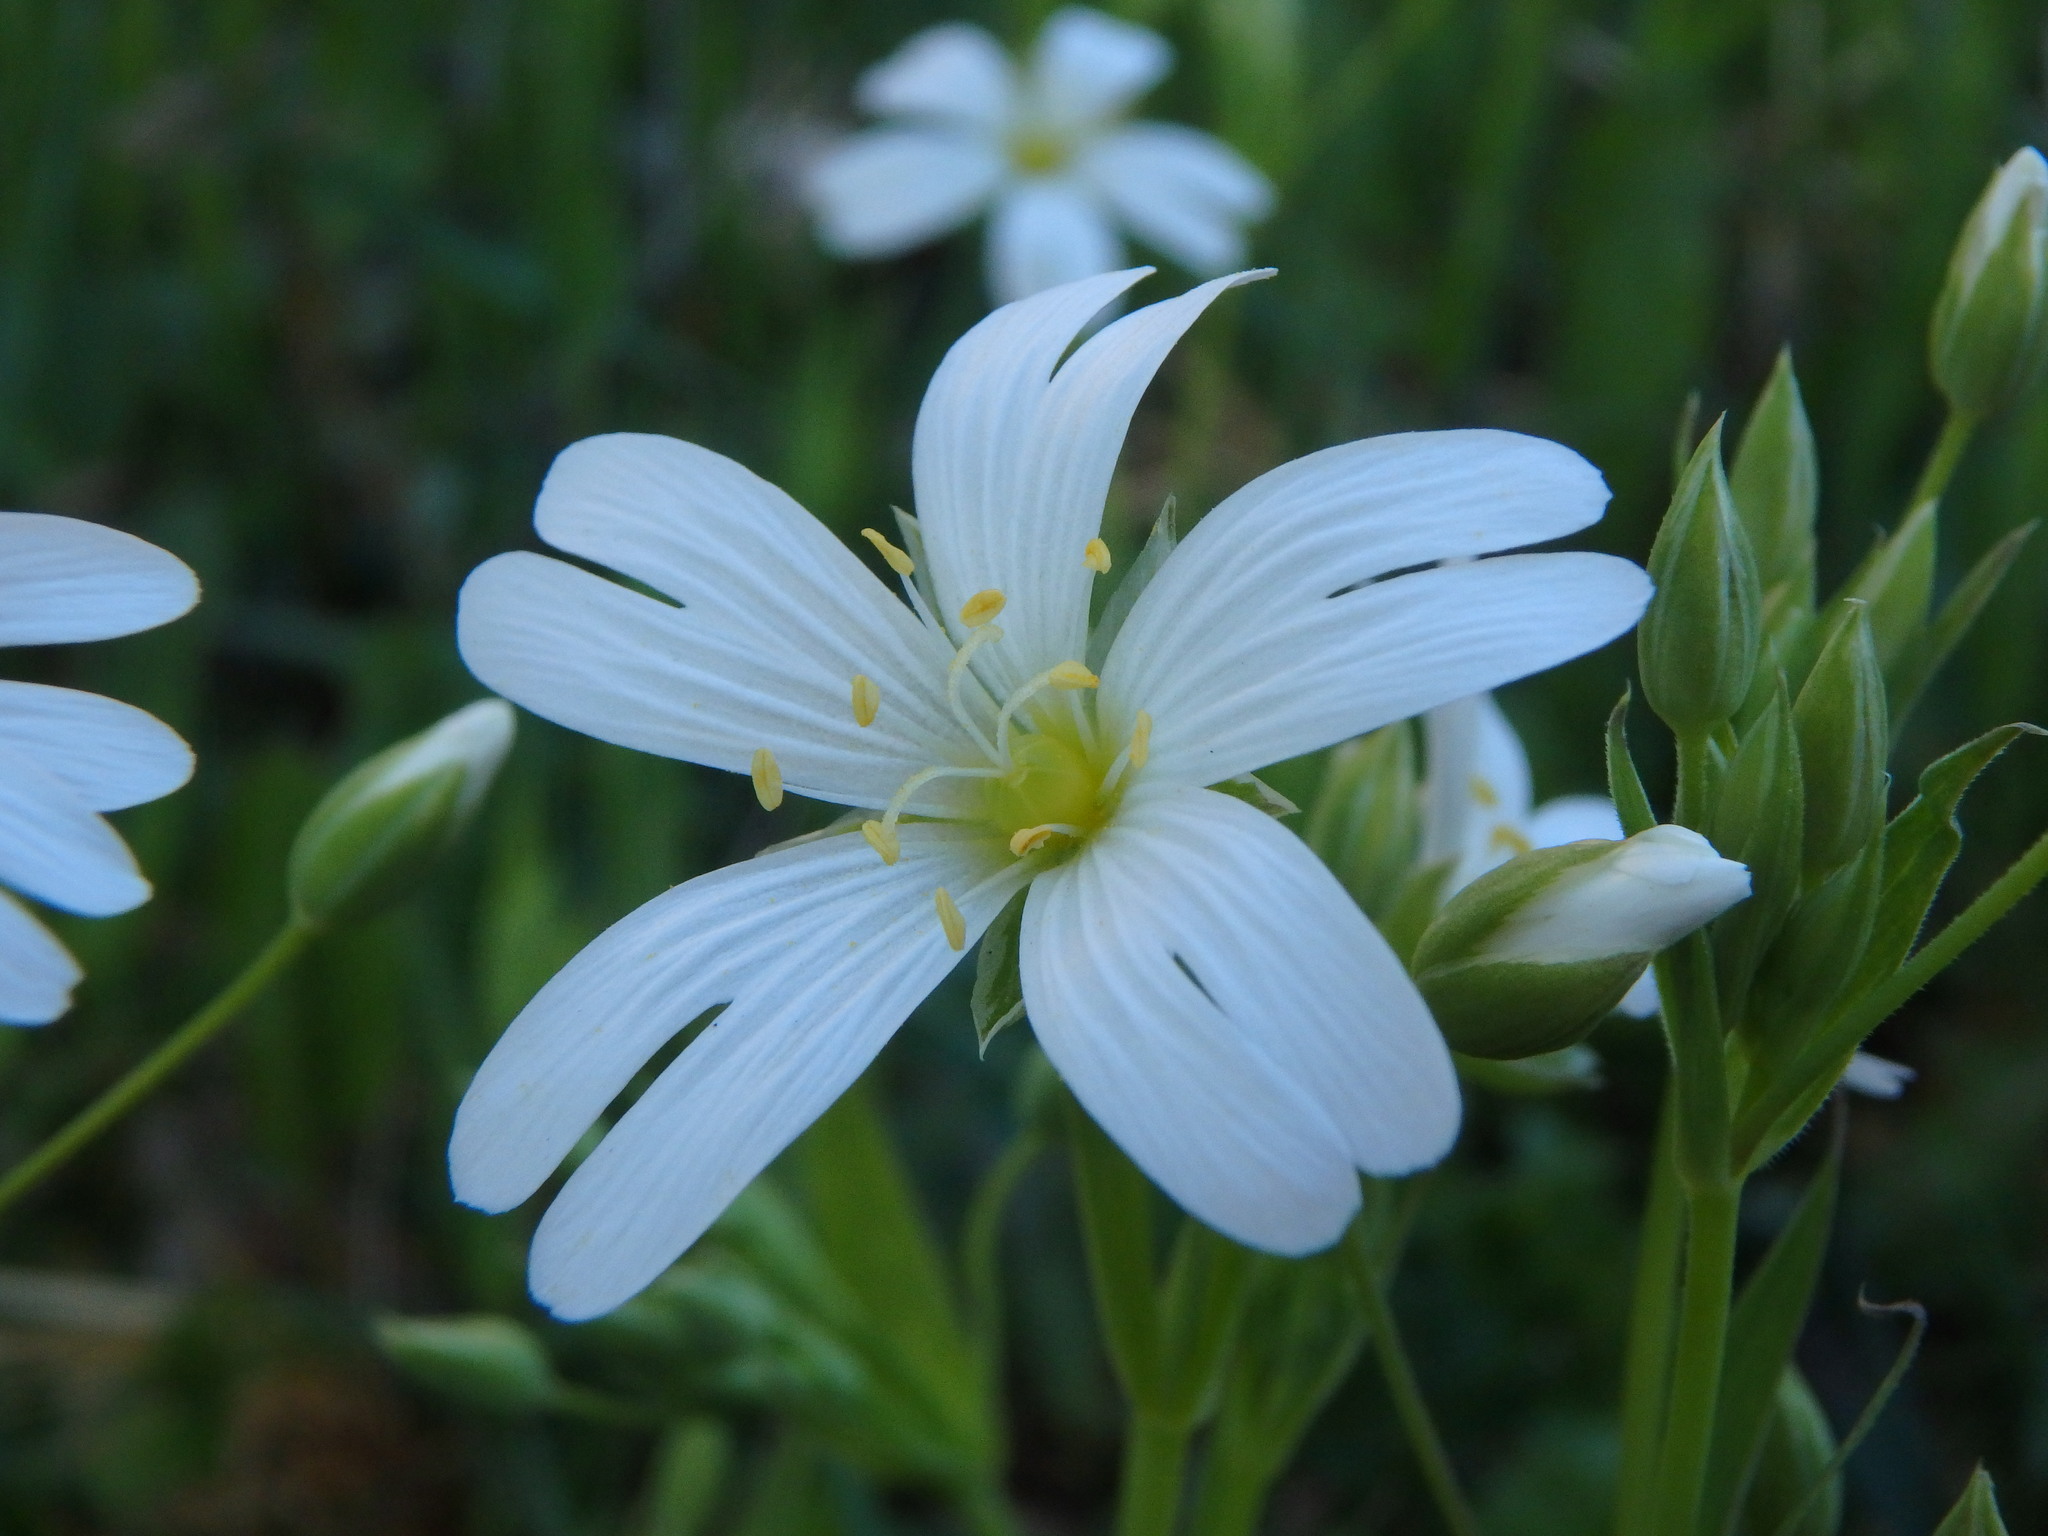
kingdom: Plantae
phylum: Tracheophyta
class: Magnoliopsida
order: Caryophyllales
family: Caryophyllaceae
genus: Rabelera
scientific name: Rabelera holostea
